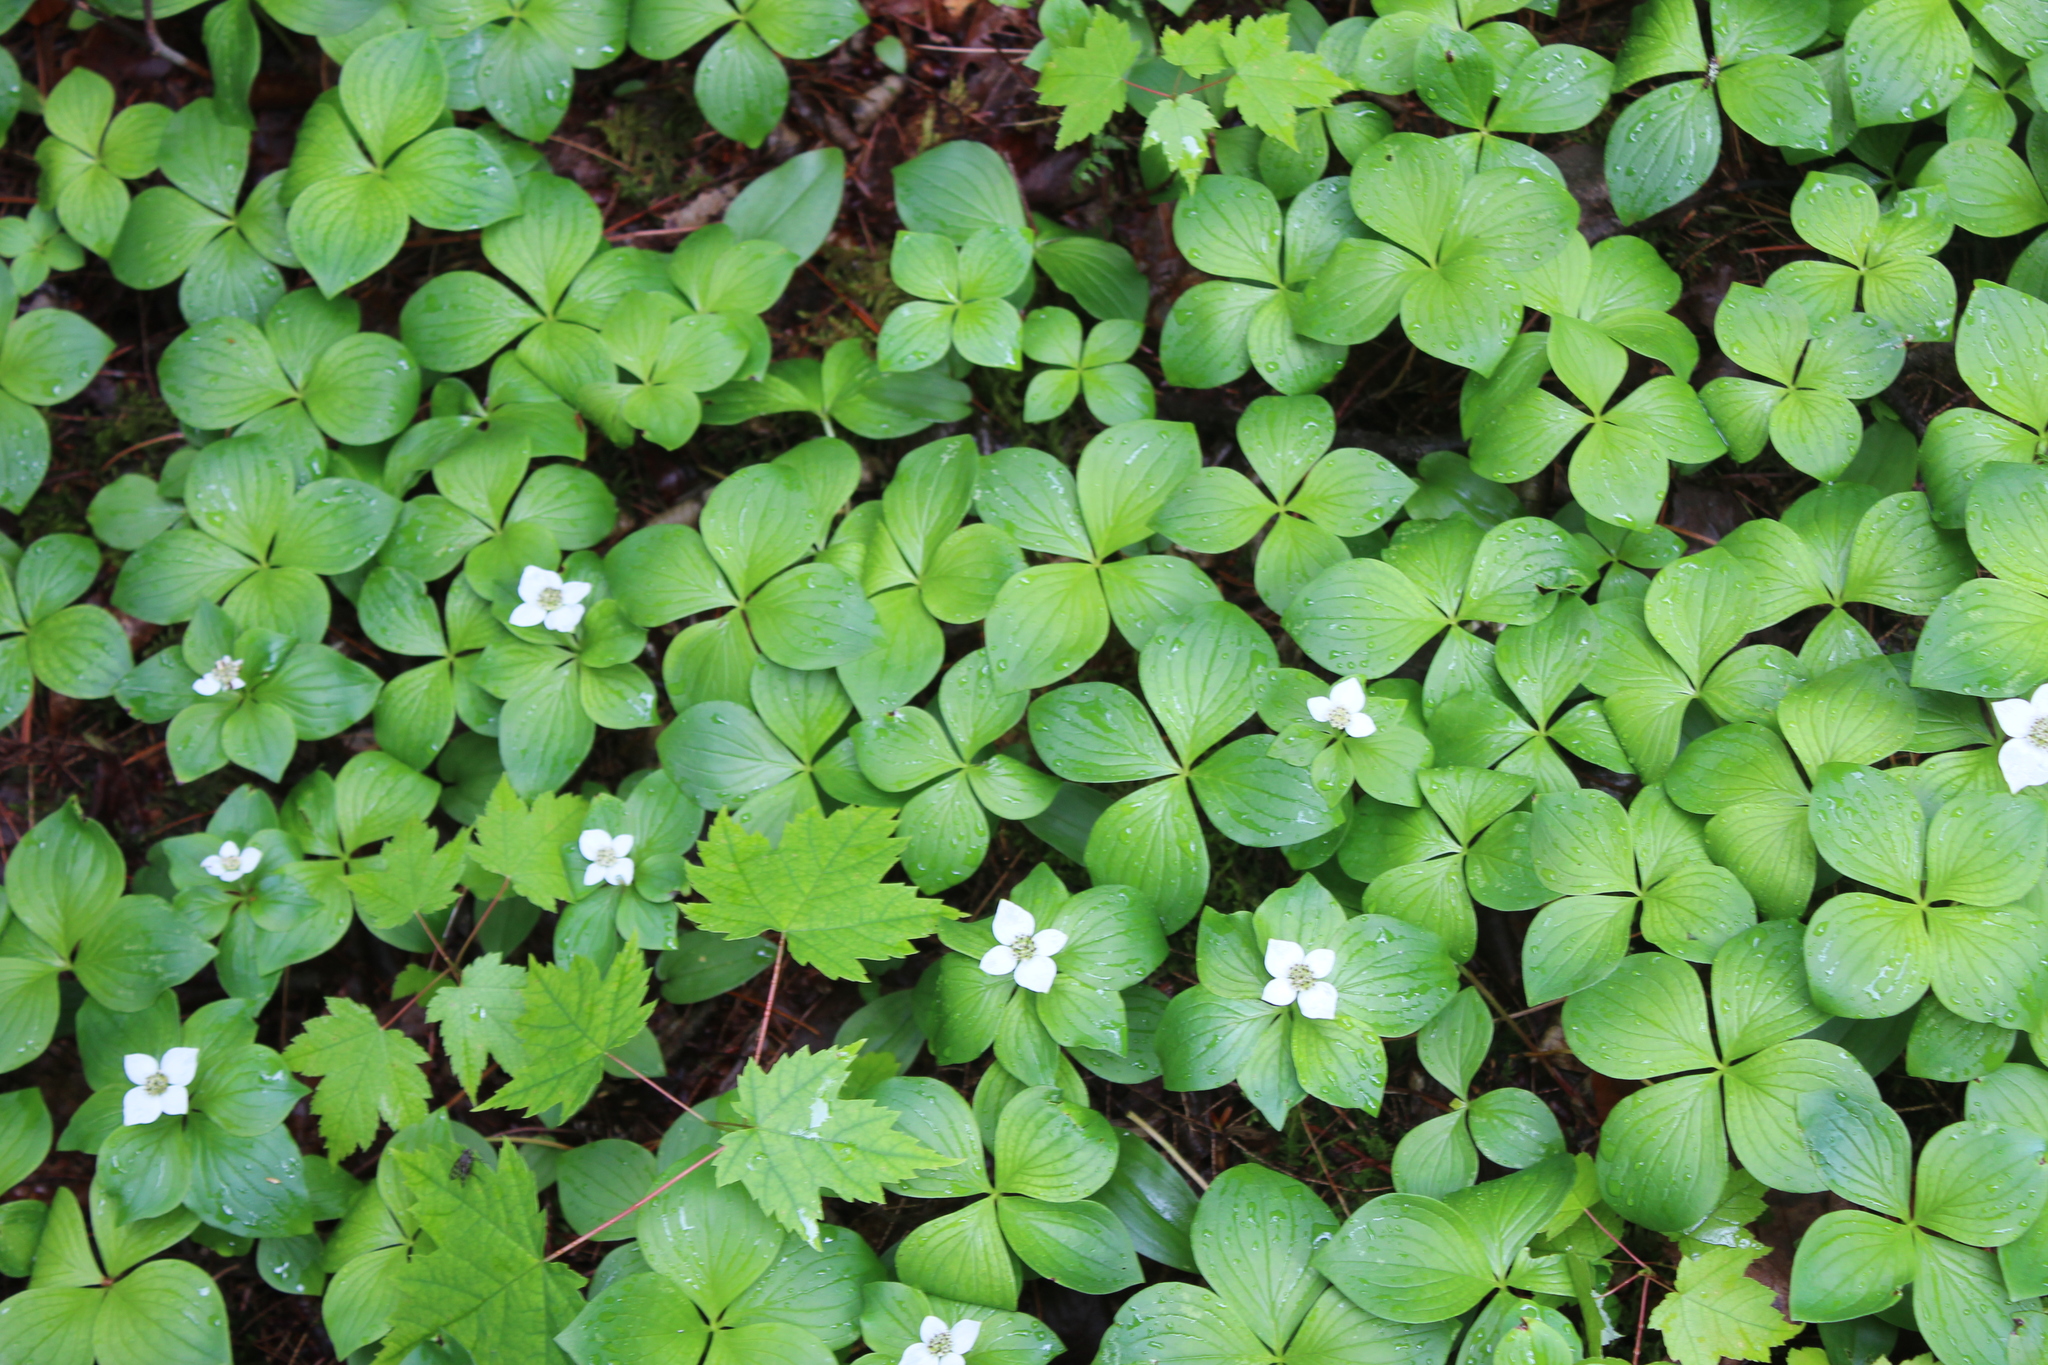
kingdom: Plantae
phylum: Tracheophyta
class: Magnoliopsida
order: Cornales
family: Cornaceae
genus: Cornus
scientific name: Cornus canadensis
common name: Creeping dogwood
